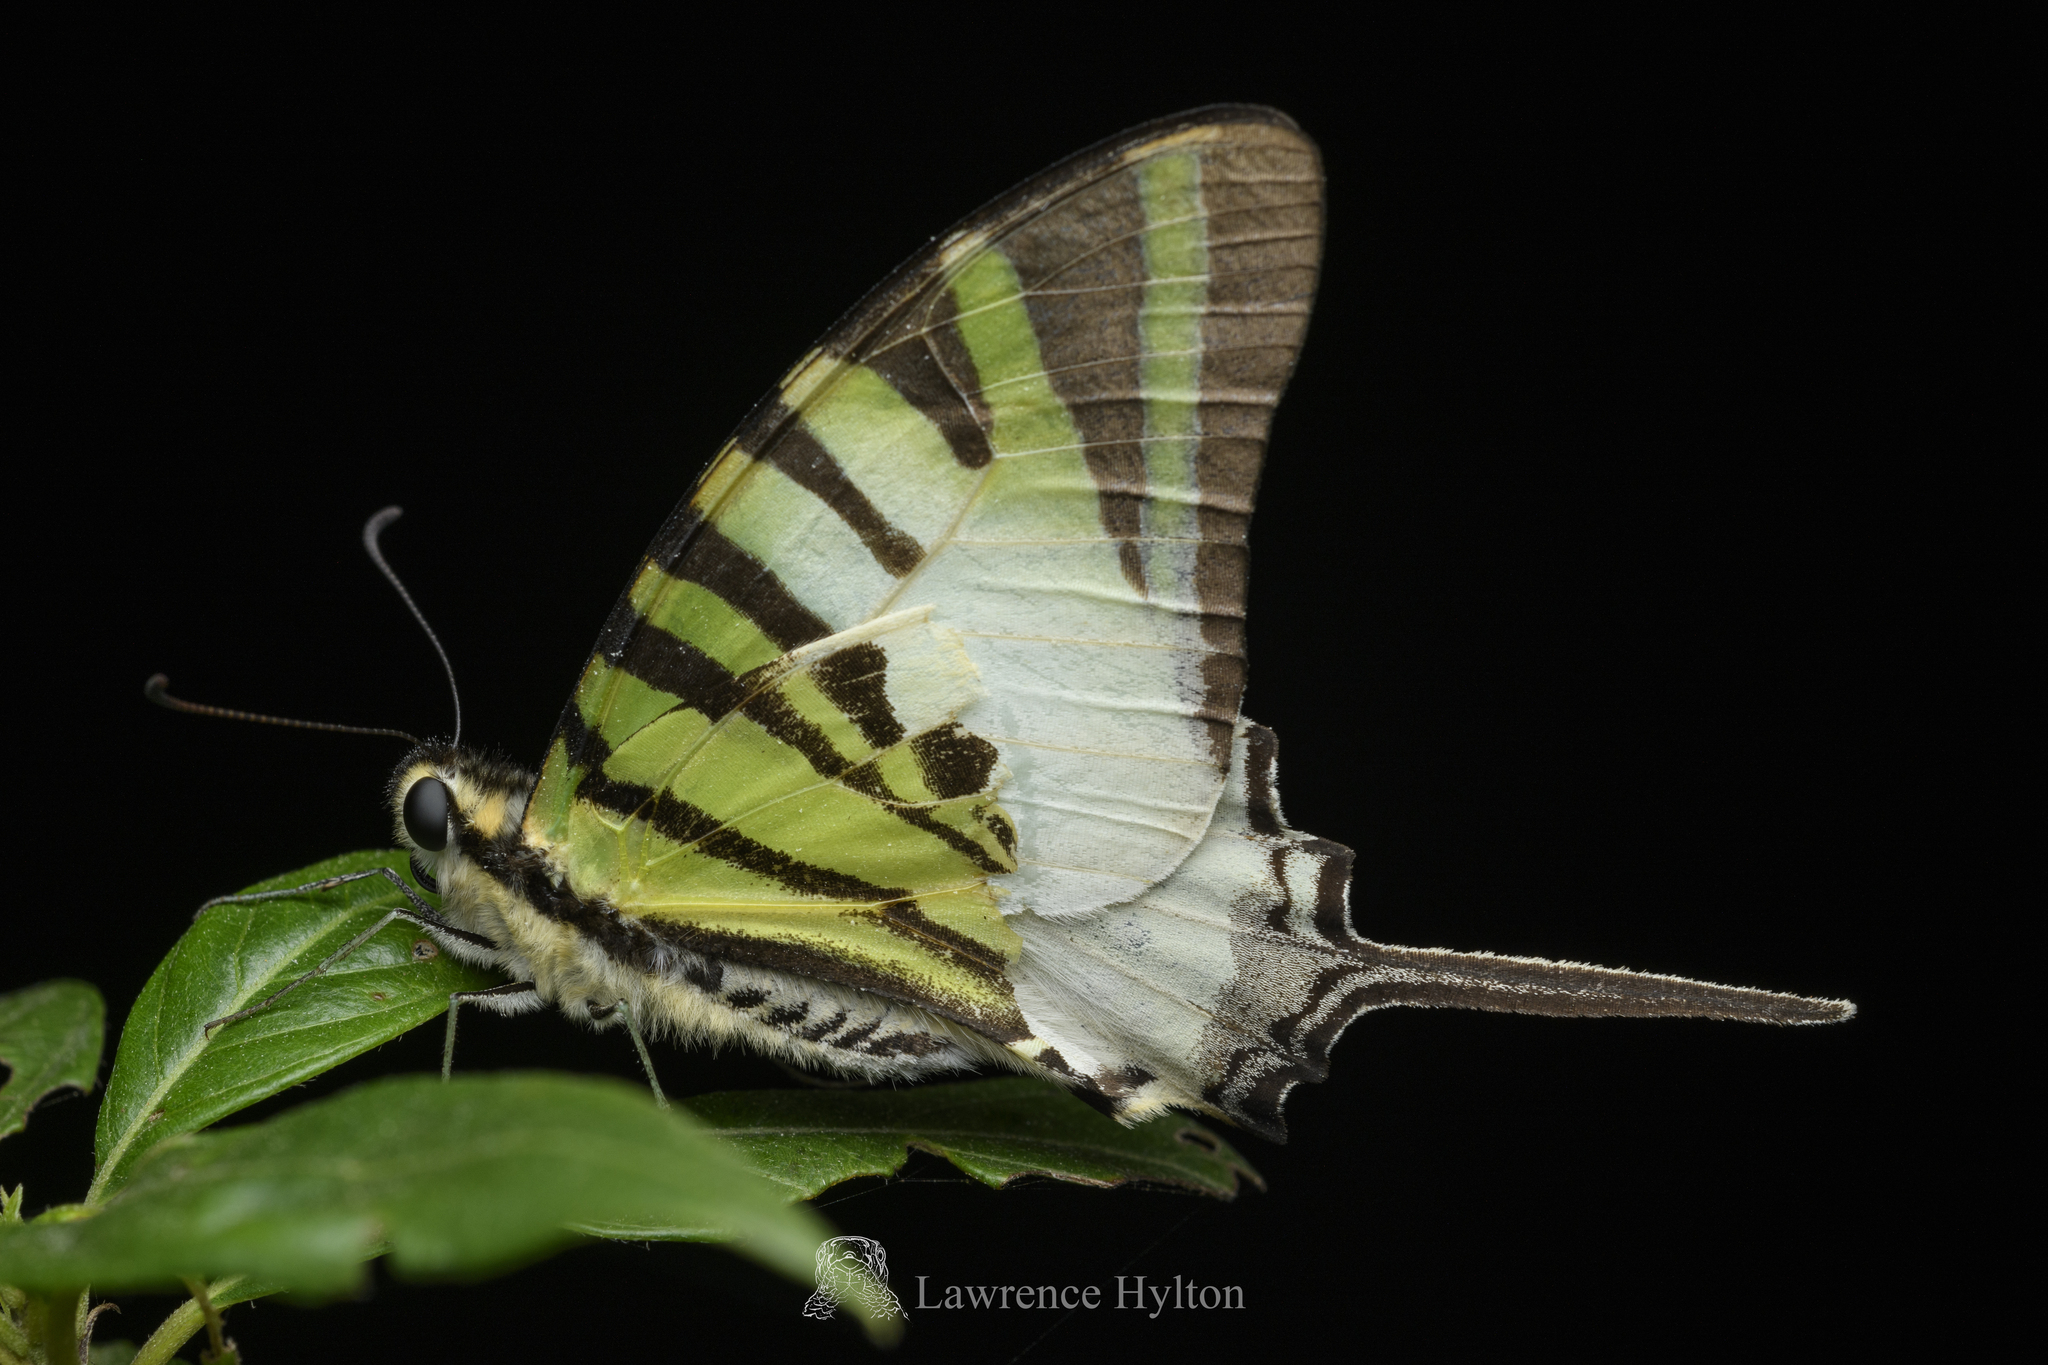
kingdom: Animalia
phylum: Arthropoda
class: Insecta
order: Lepidoptera
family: Papilionidae
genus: Graphium
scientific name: Graphium antiphates
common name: Fivebar swordtail
